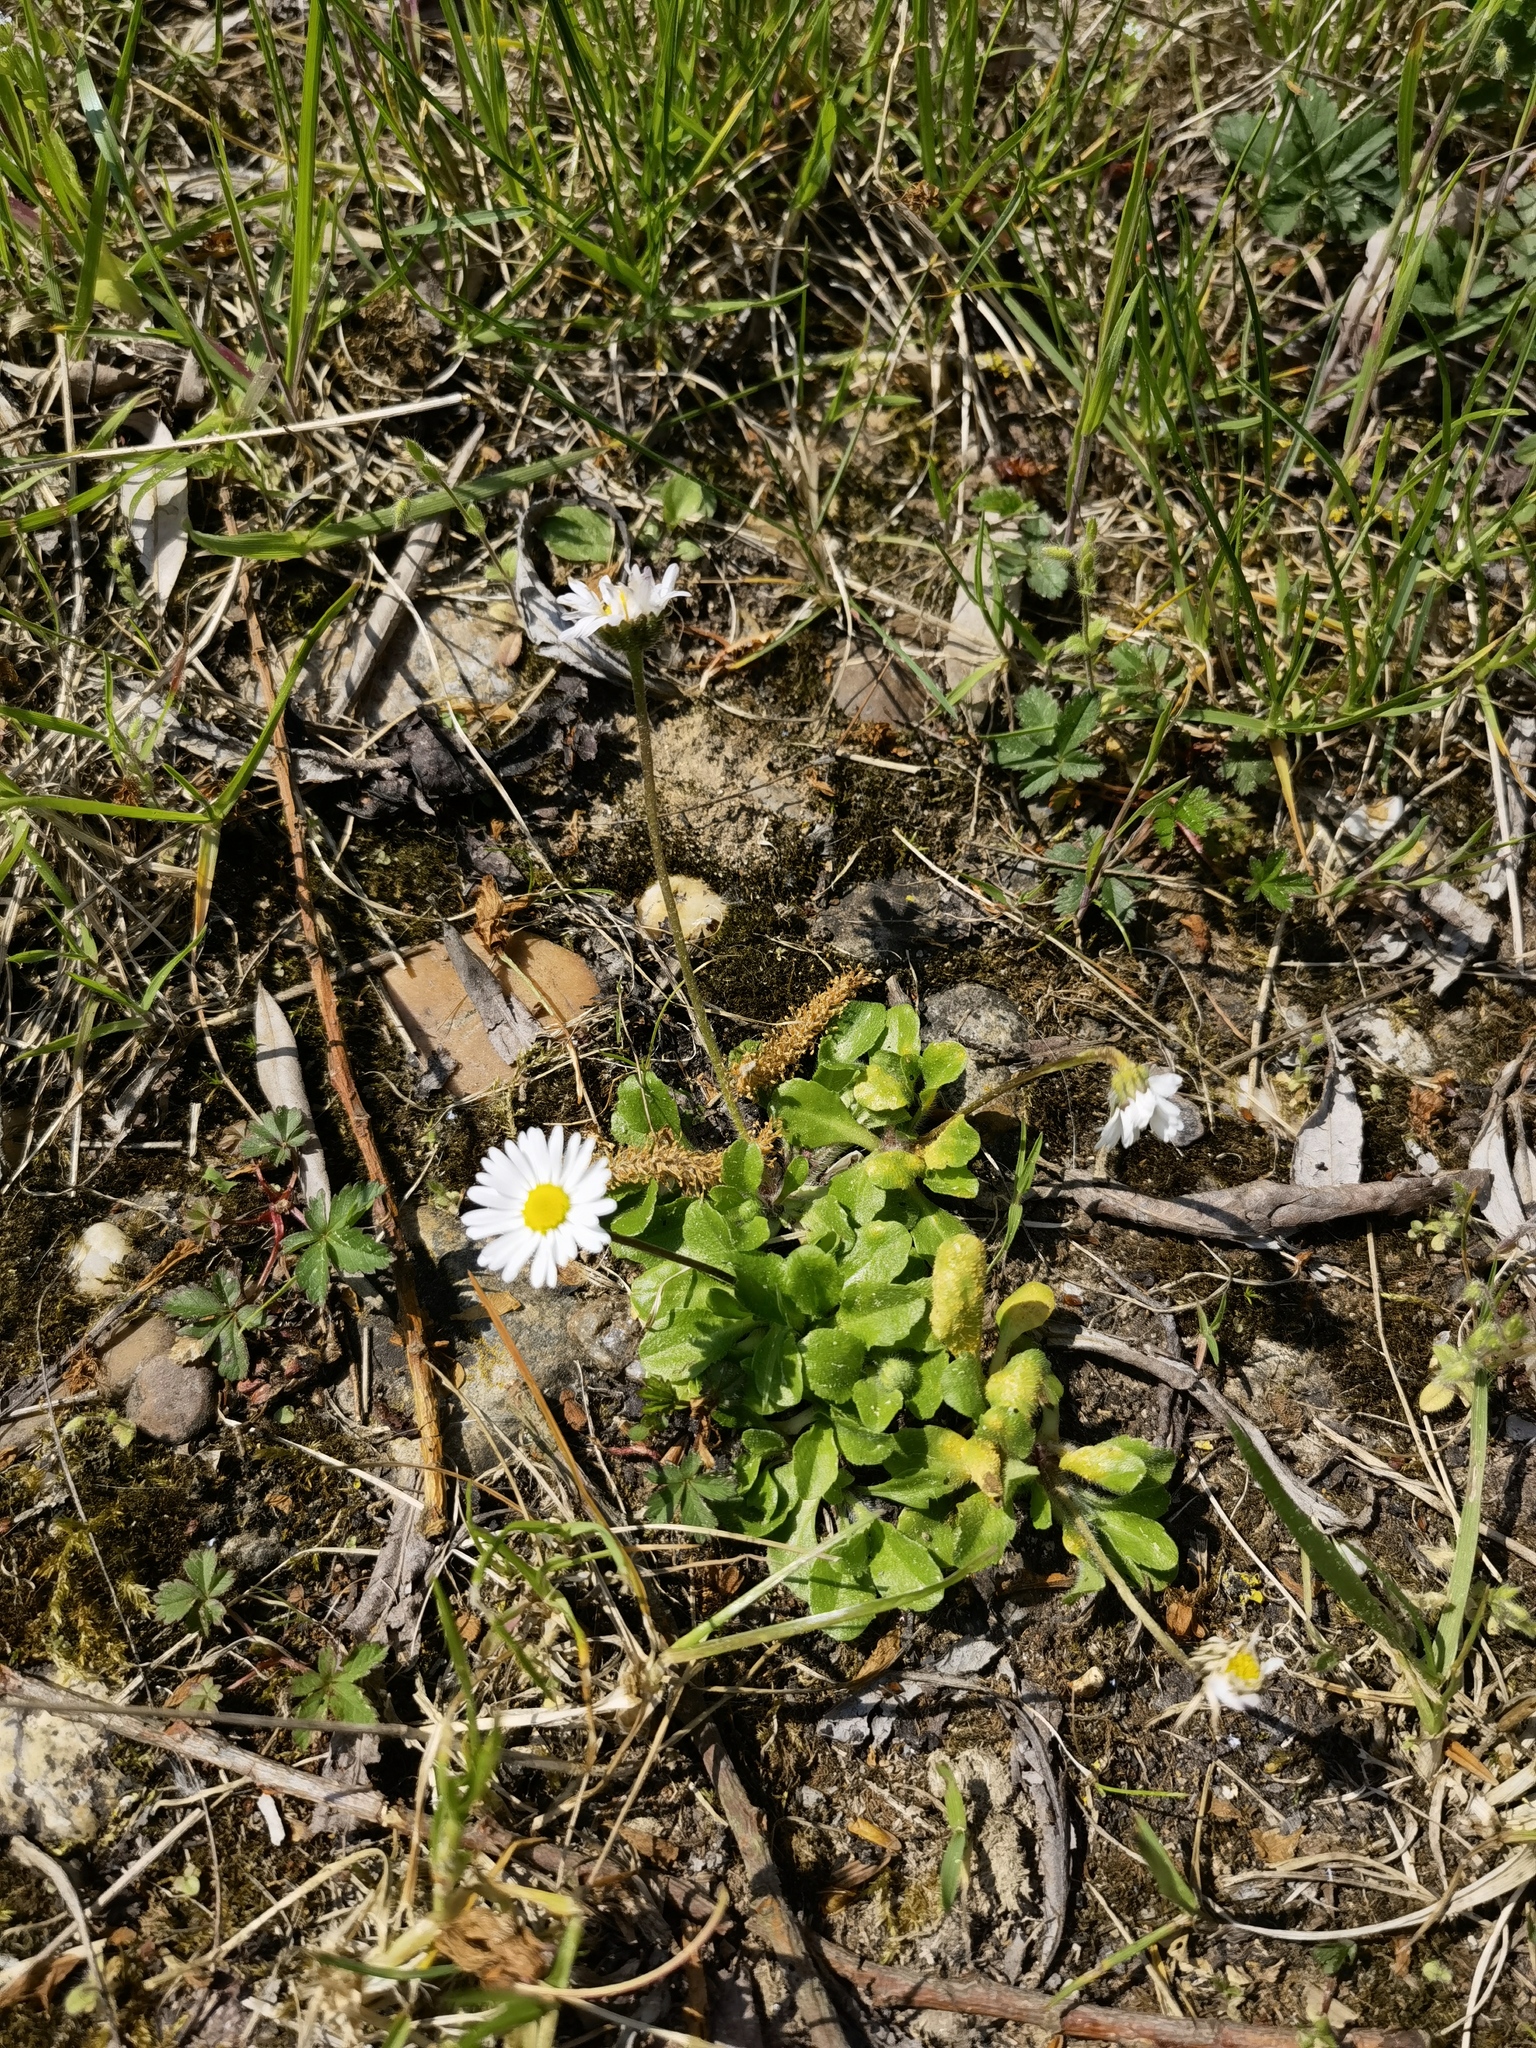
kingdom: Plantae
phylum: Tracheophyta
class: Magnoliopsida
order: Asterales
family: Asteraceae
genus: Bellis
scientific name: Bellis perennis
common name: Lawndaisy
